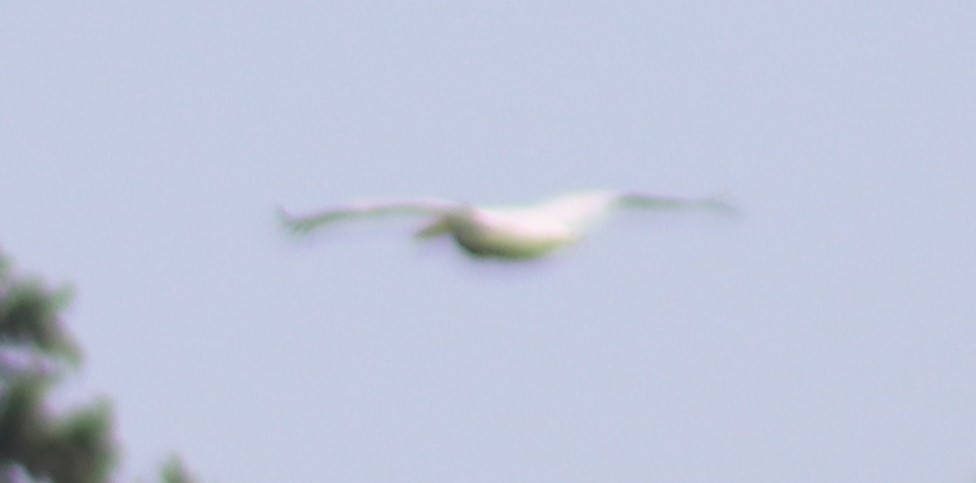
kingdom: Animalia
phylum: Chordata
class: Aves
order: Pelecaniformes
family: Pelecanidae
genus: Pelecanus
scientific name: Pelecanus erythrorhynchos
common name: American white pelican
